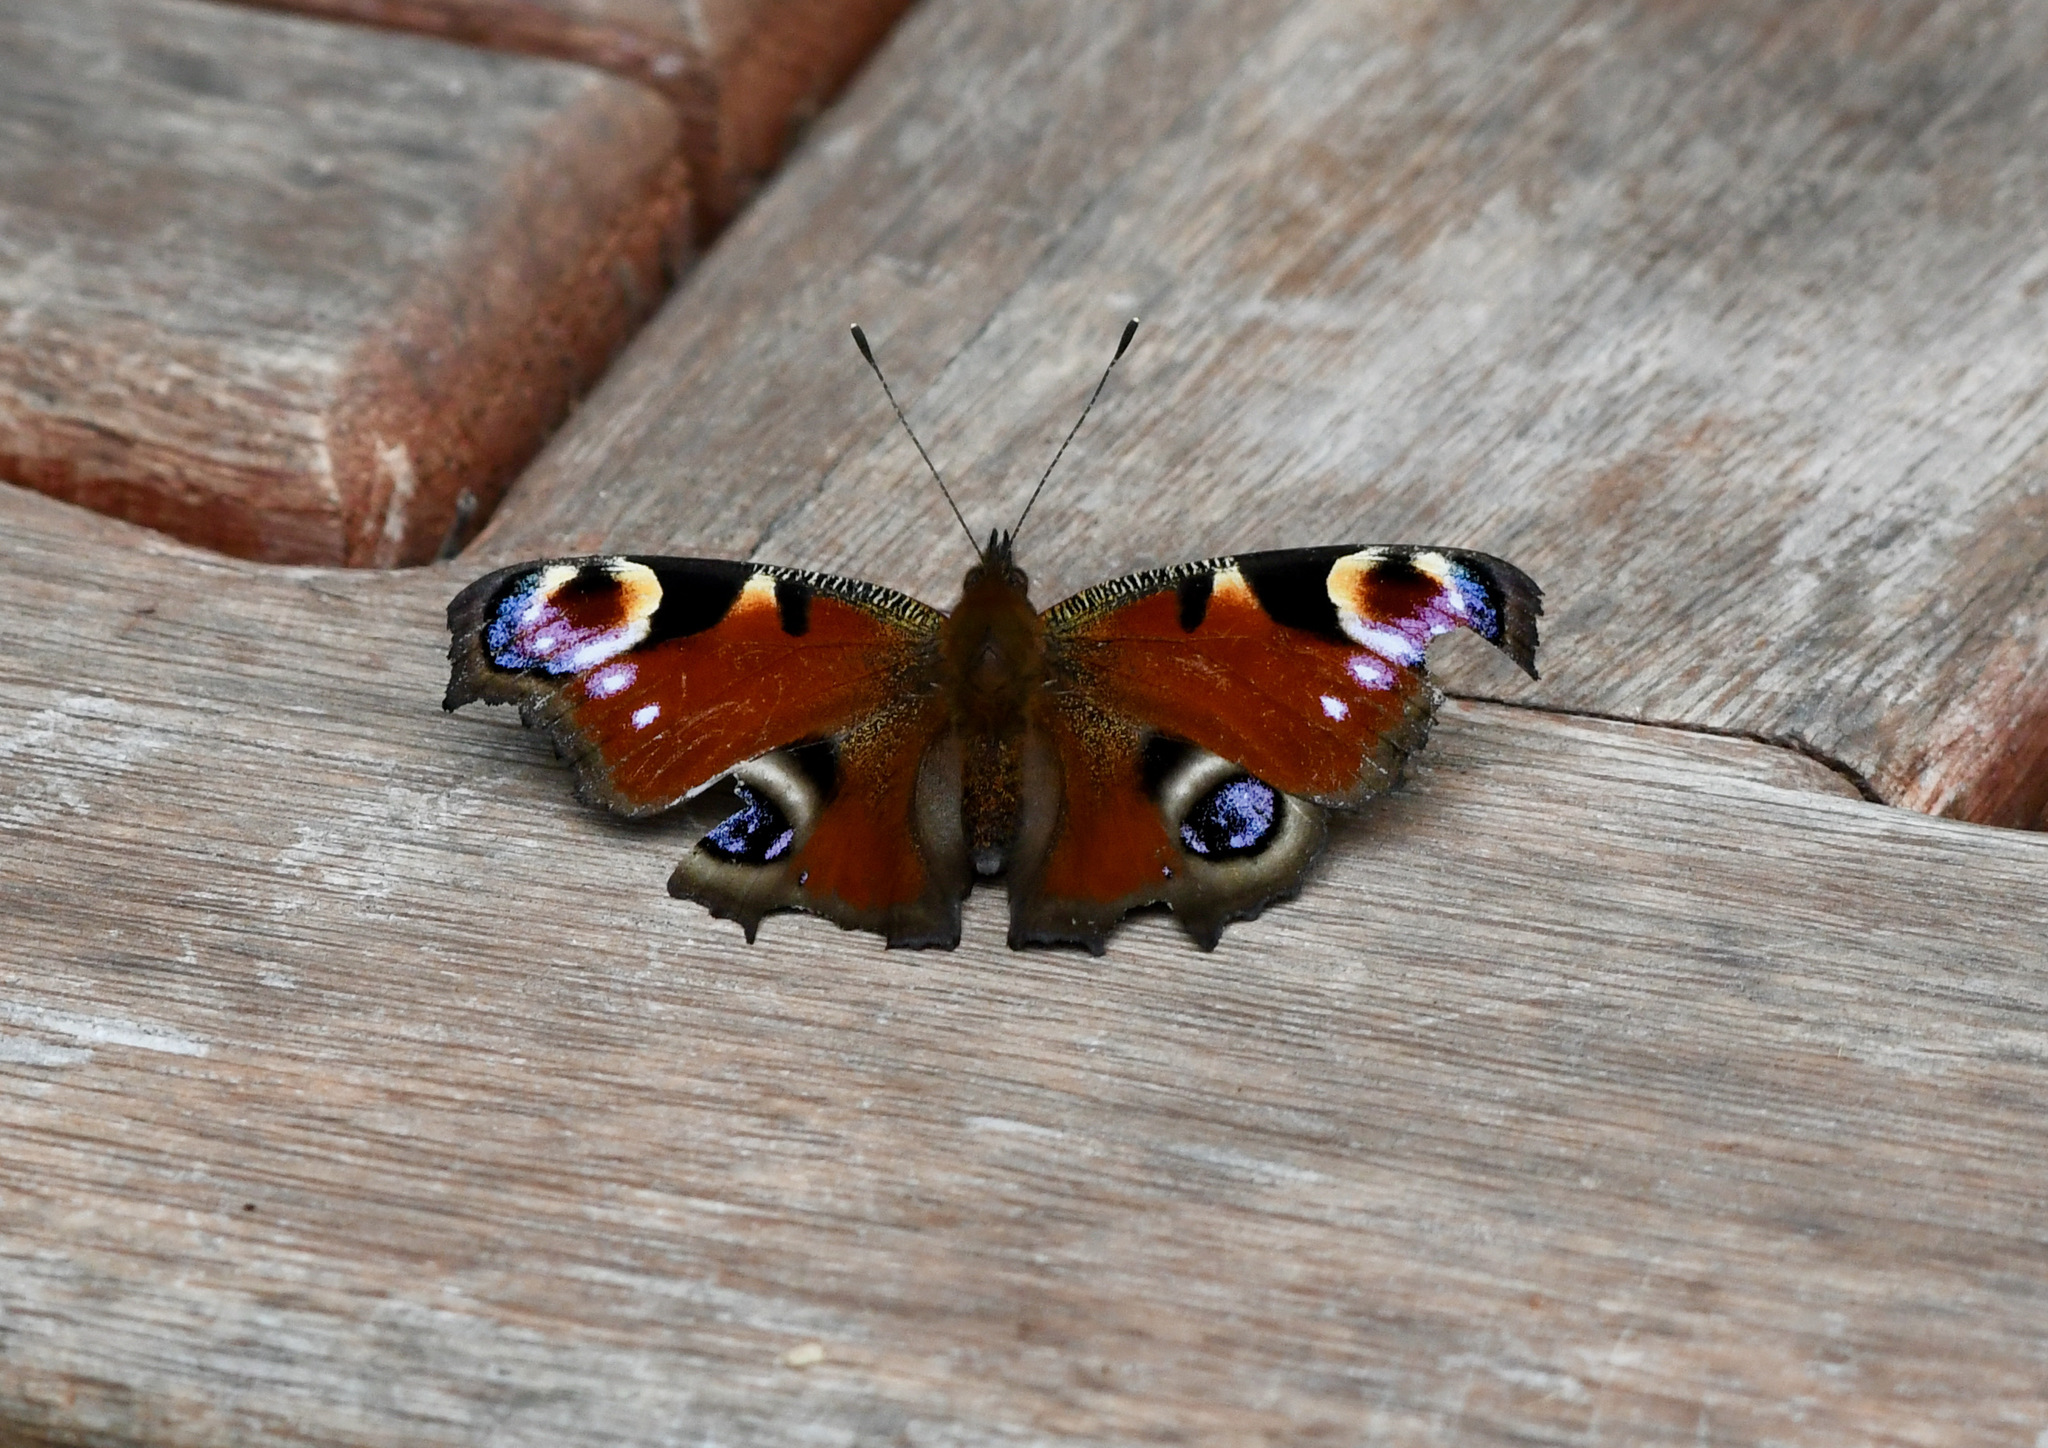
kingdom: Animalia
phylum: Arthropoda
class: Insecta
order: Lepidoptera
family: Nymphalidae
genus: Aglais
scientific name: Aglais io
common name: Peacock
